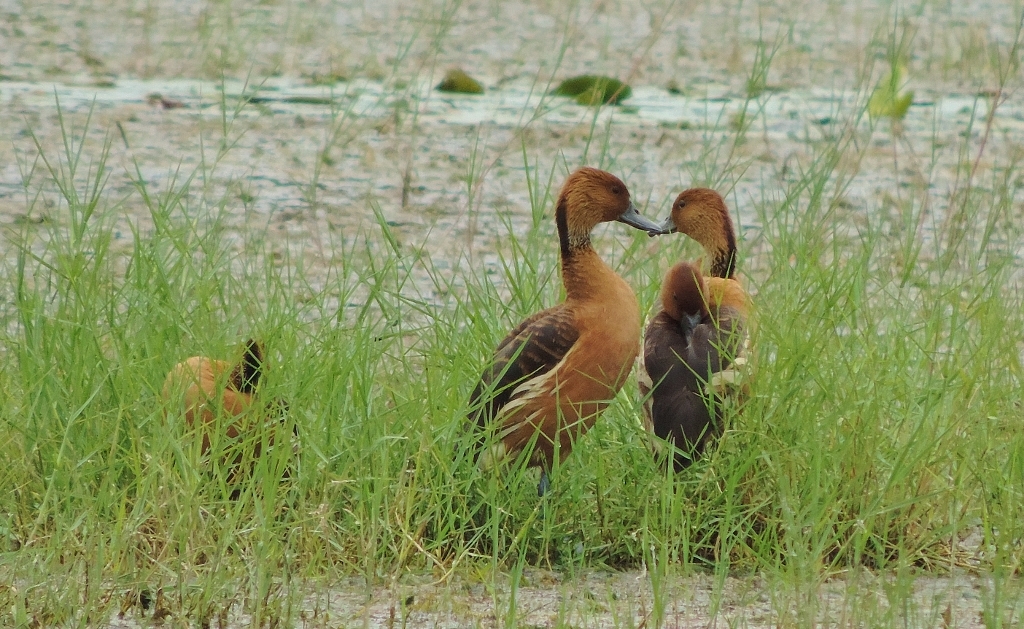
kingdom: Animalia
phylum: Chordata
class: Aves
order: Anseriformes
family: Anatidae
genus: Dendrocygna
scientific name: Dendrocygna bicolor
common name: Fulvous whistling duck
